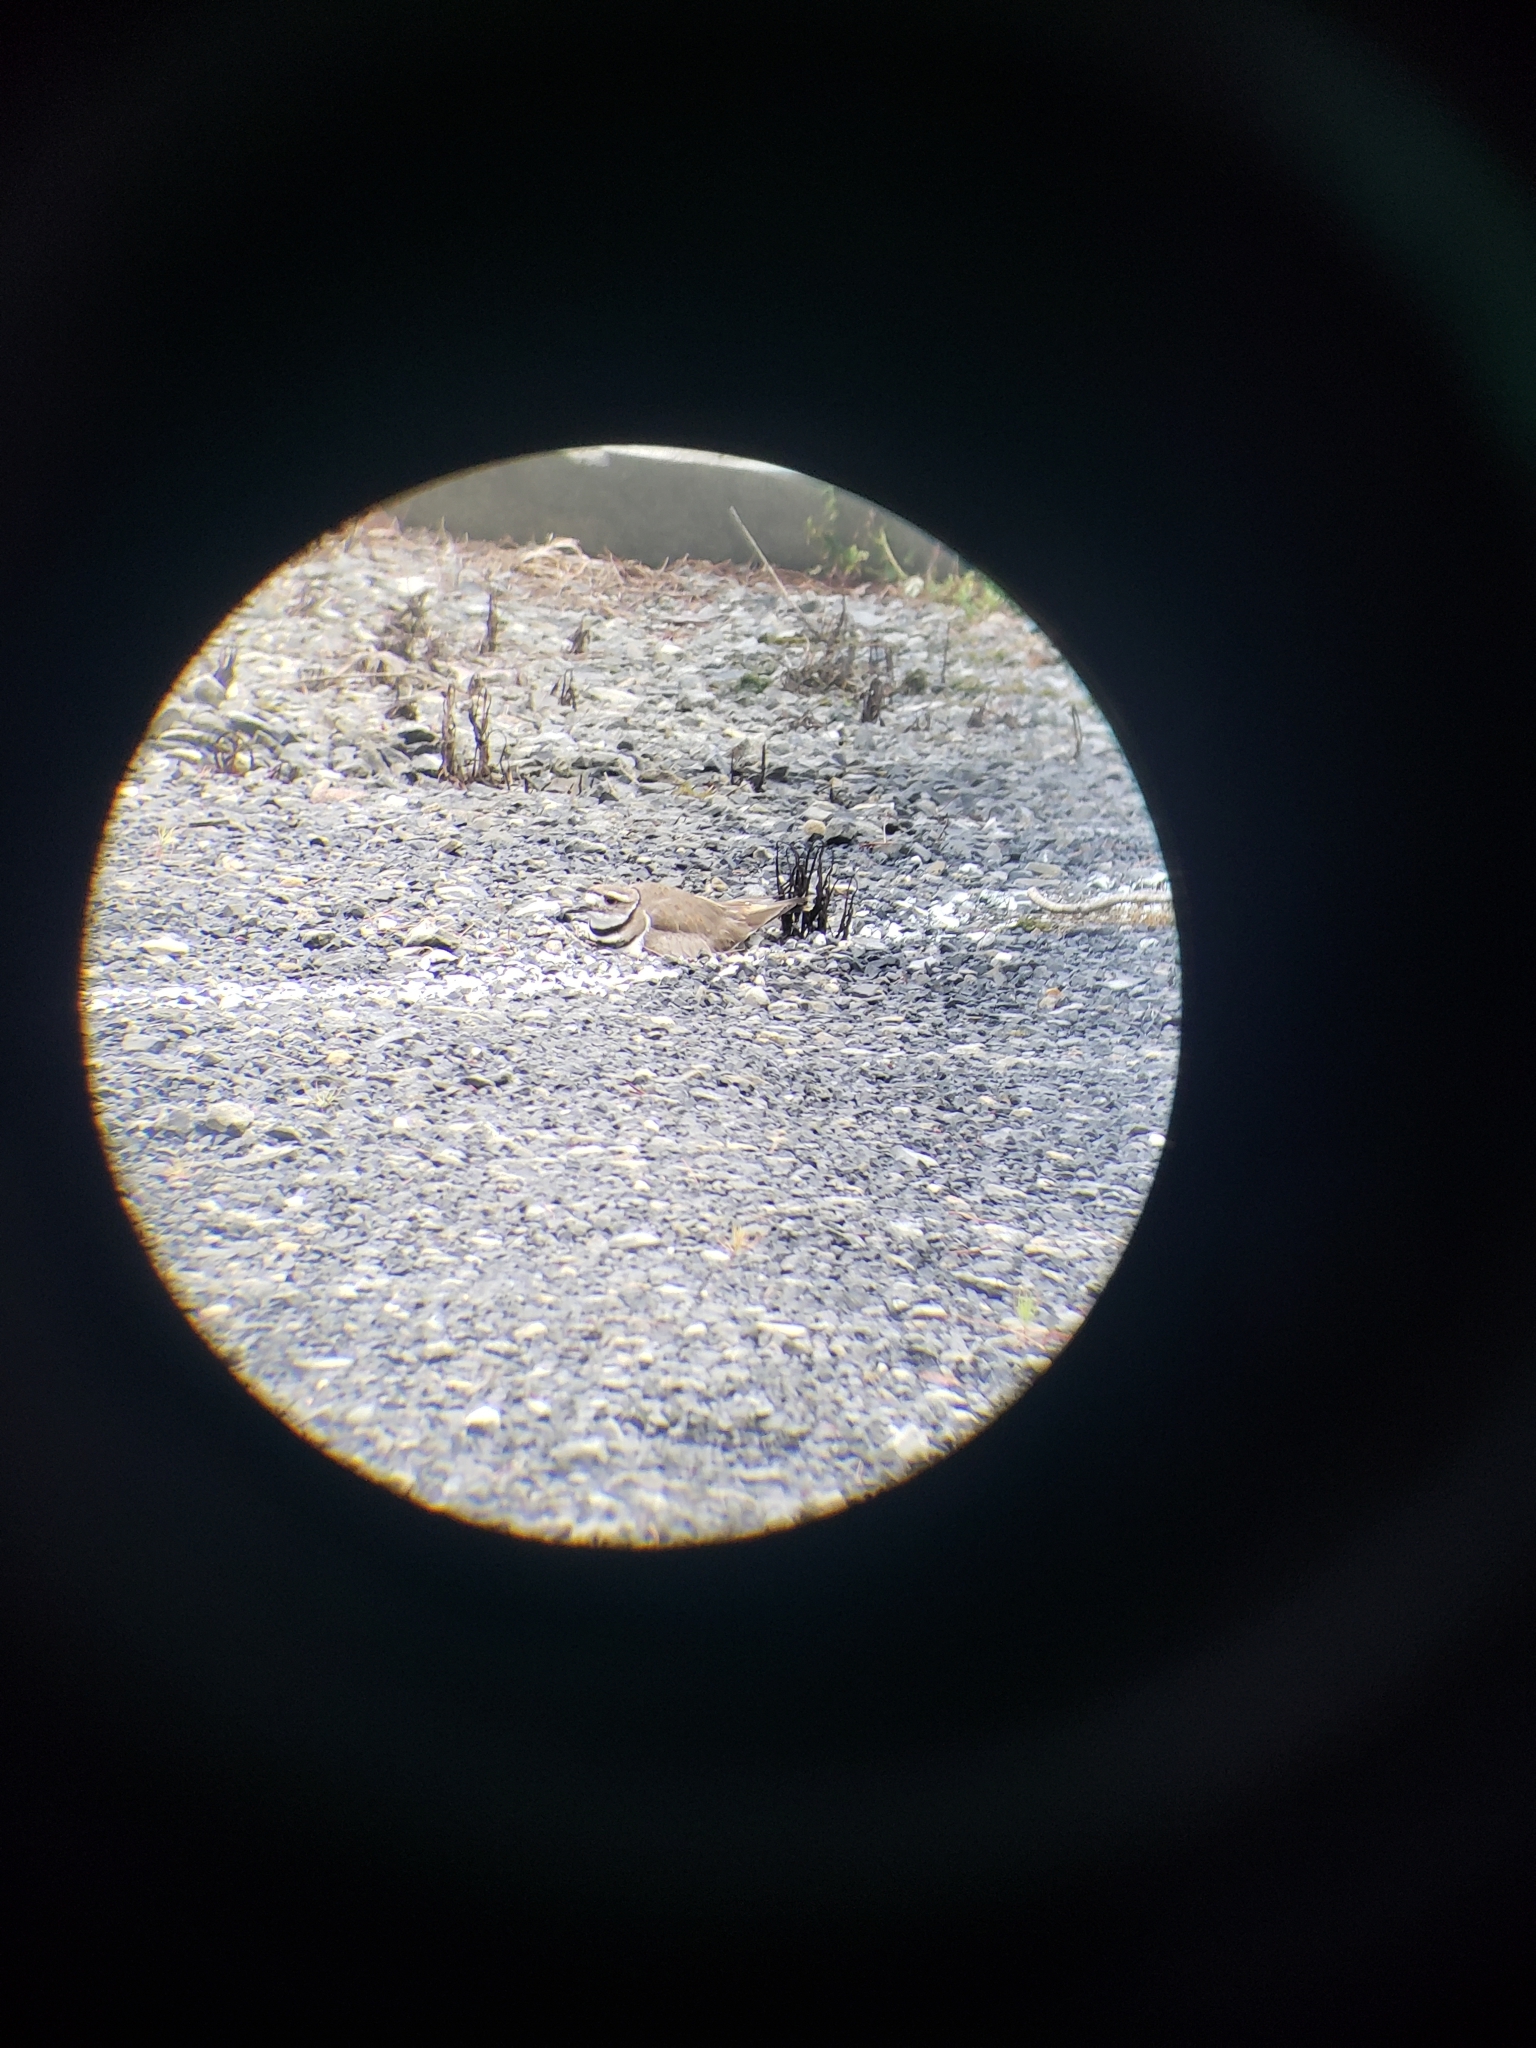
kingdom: Animalia
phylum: Chordata
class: Aves
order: Charadriiformes
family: Charadriidae
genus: Charadrius
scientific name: Charadrius vociferus
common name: Killdeer
